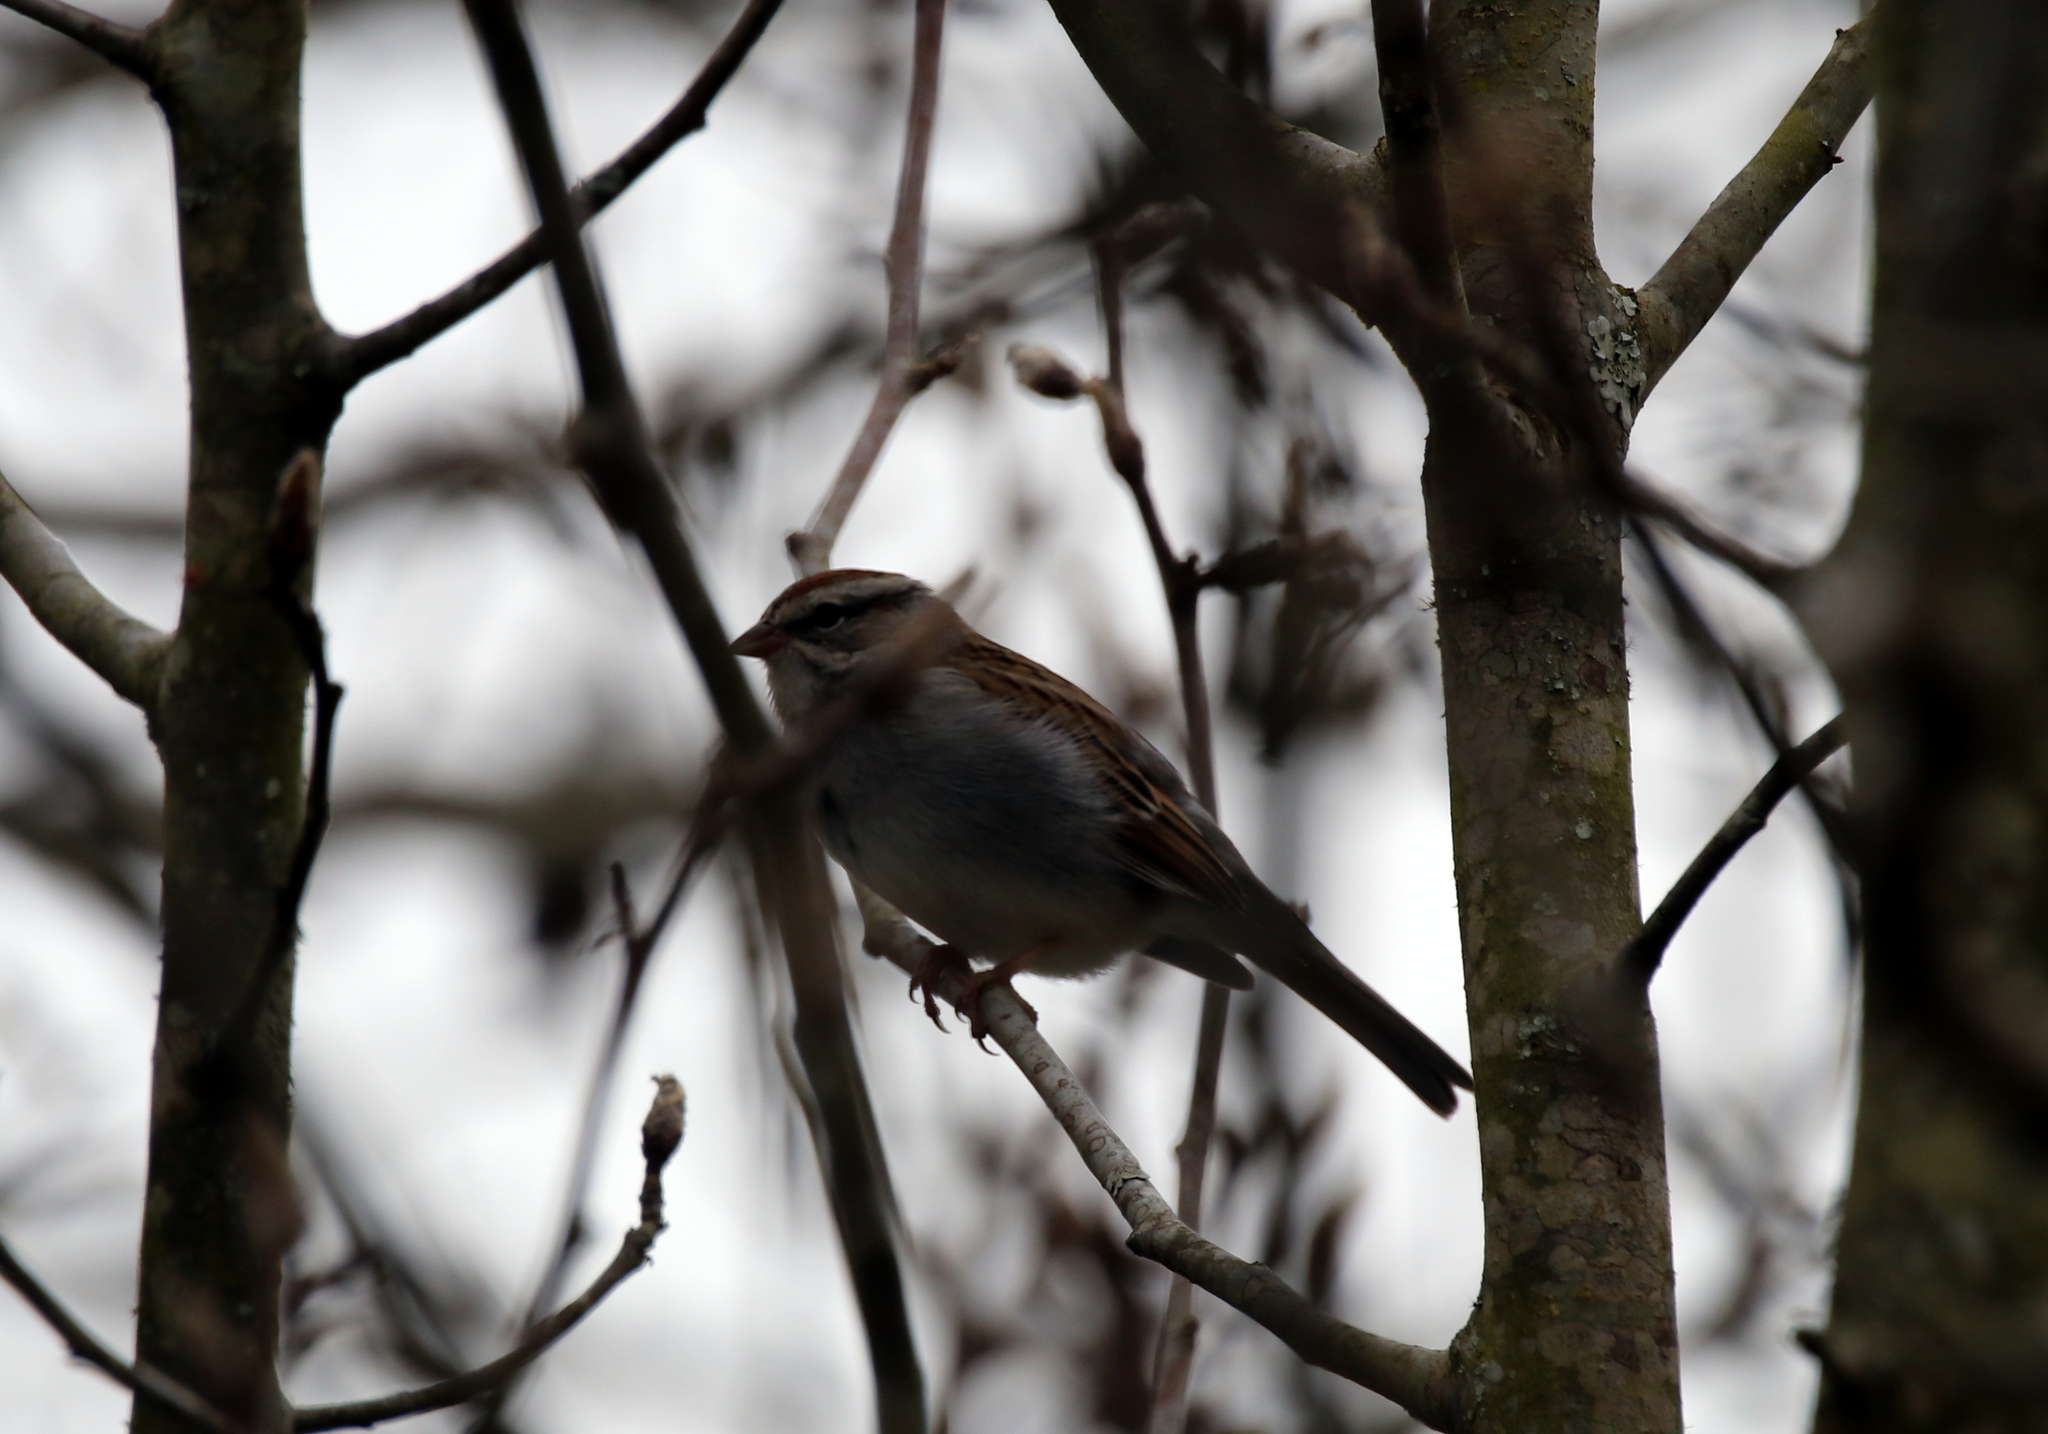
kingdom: Animalia
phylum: Chordata
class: Aves
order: Passeriformes
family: Passerellidae
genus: Spizella
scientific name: Spizella passerina
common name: Chipping sparrow
